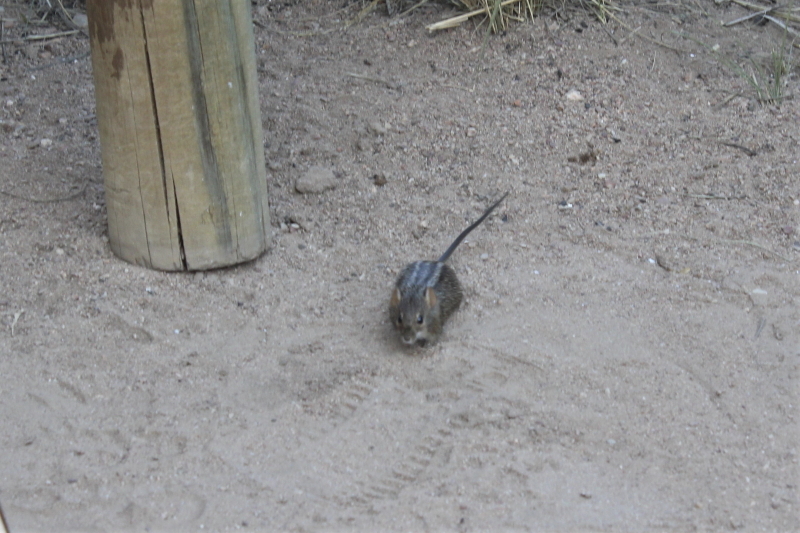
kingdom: Animalia
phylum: Chordata
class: Mammalia
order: Rodentia
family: Muridae
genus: Rhabdomys
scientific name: Rhabdomys pumilio
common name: Xeric four-striped grass rat
